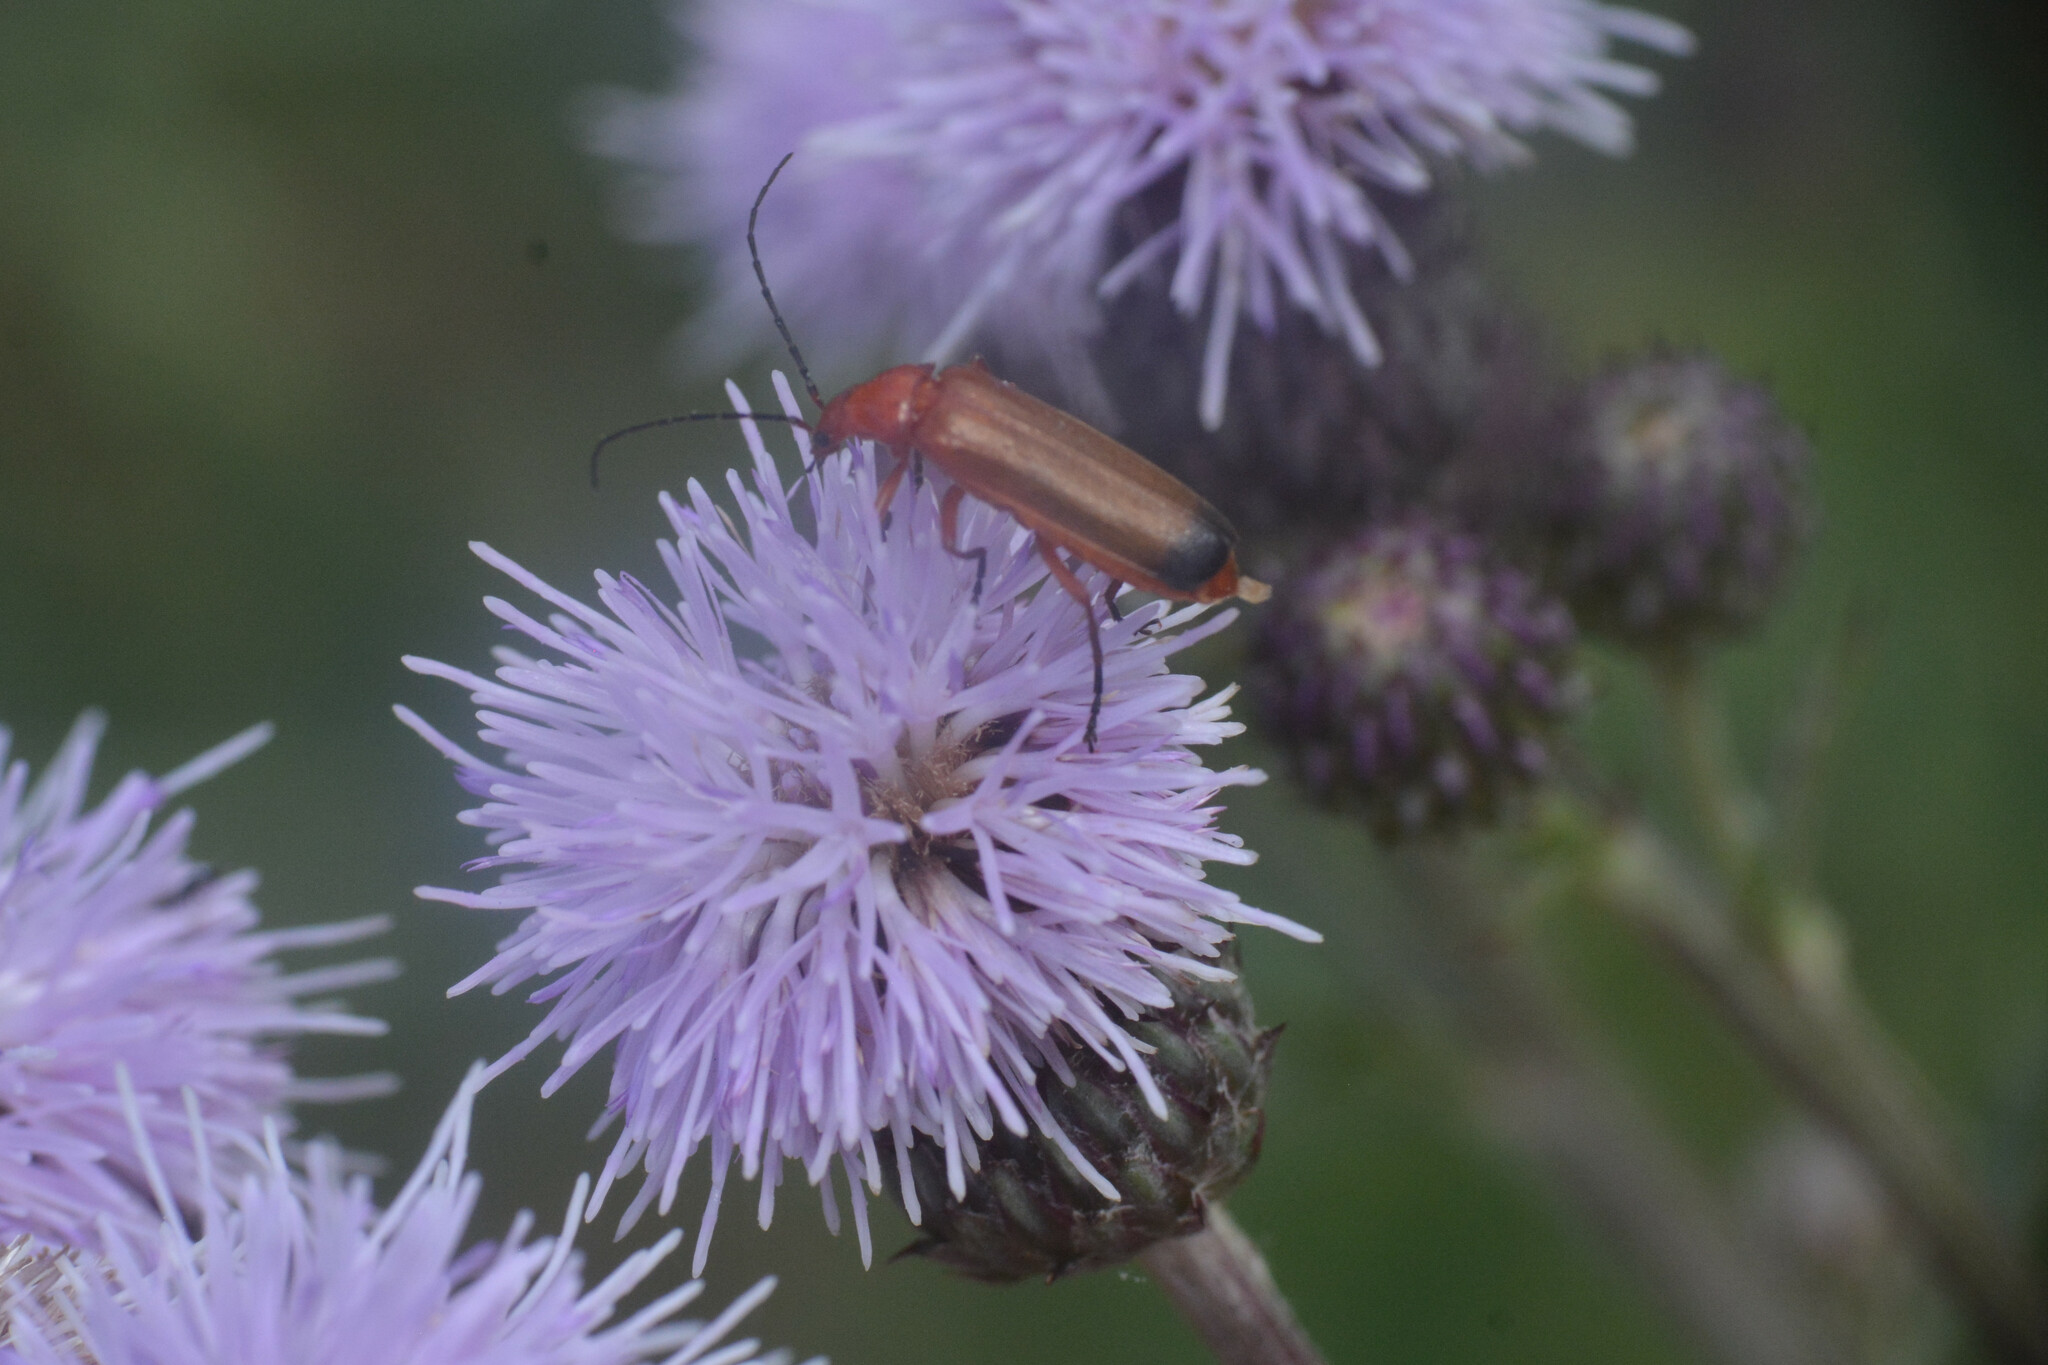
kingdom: Animalia
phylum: Arthropoda
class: Insecta
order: Coleoptera
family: Cantharidae
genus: Rhagonycha
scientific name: Rhagonycha fulva
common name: Common red soldier beetle
